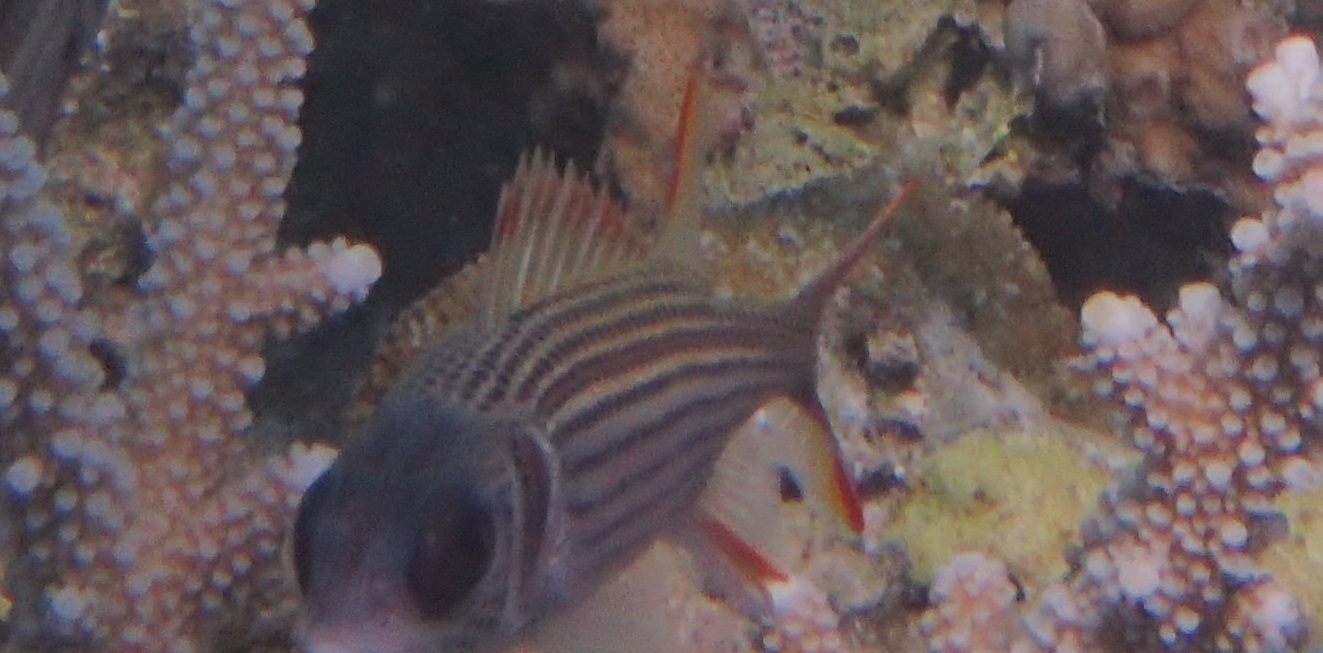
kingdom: Animalia
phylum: Chordata
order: Beryciformes
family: Holocentridae
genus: Neoniphon
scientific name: Neoniphon argenteus
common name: Clearfin squirrelfish
